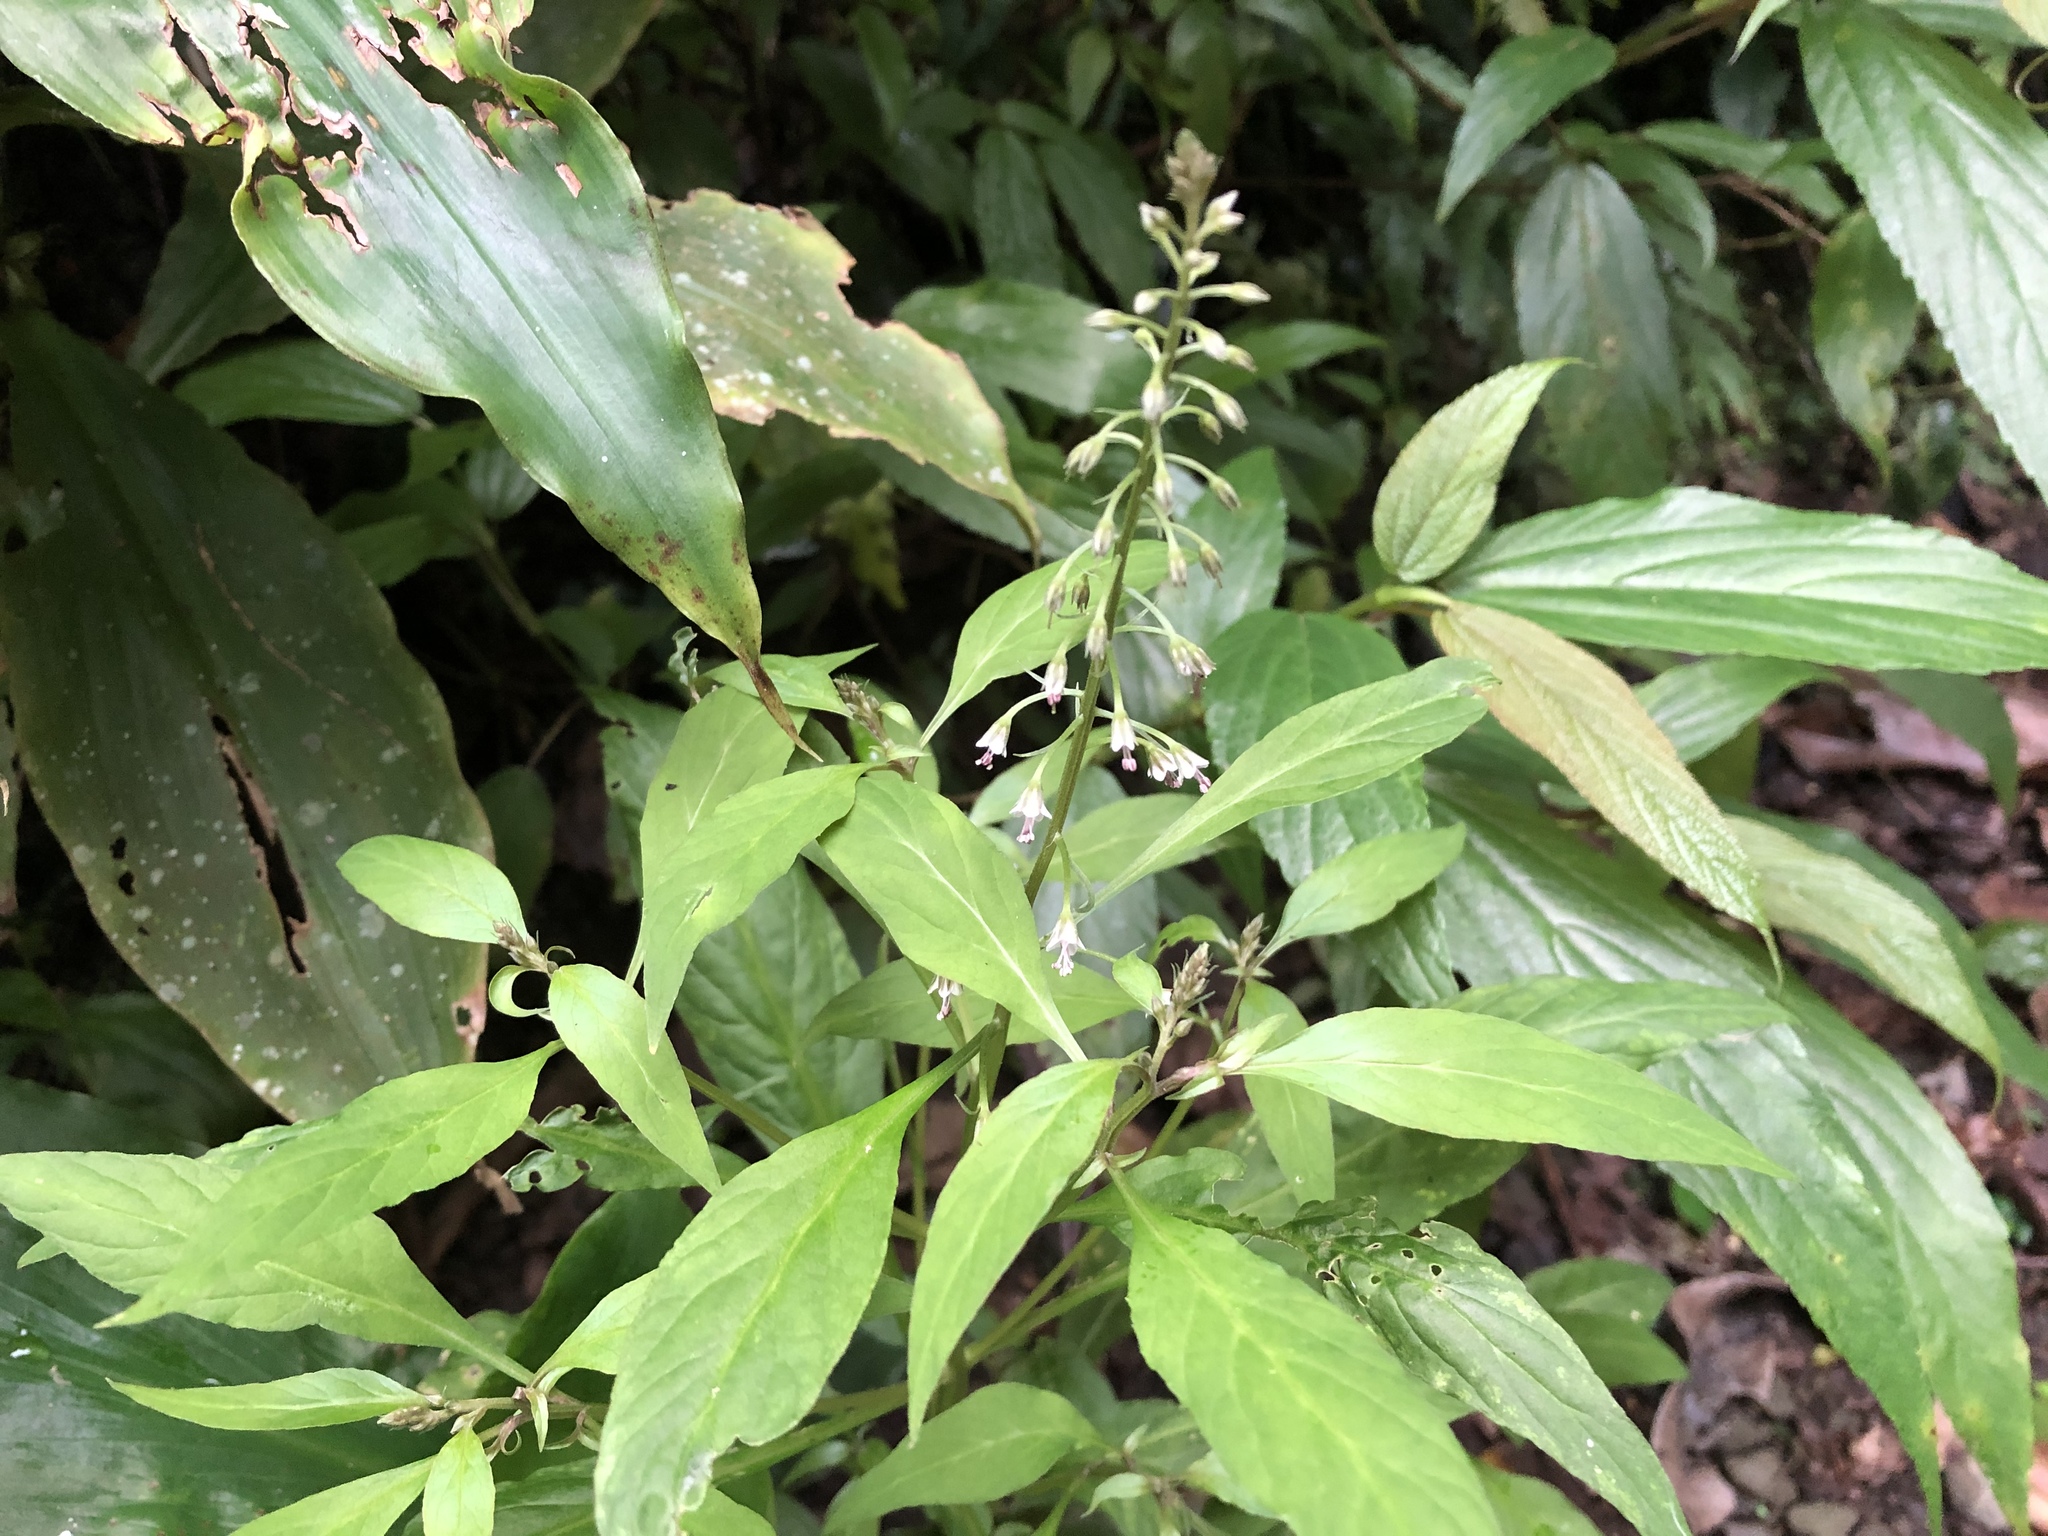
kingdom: Plantae
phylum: Tracheophyta
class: Magnoliopsida
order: Ericales
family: Primulaceae
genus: Lysimachia
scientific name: Lysimachia decurrens
